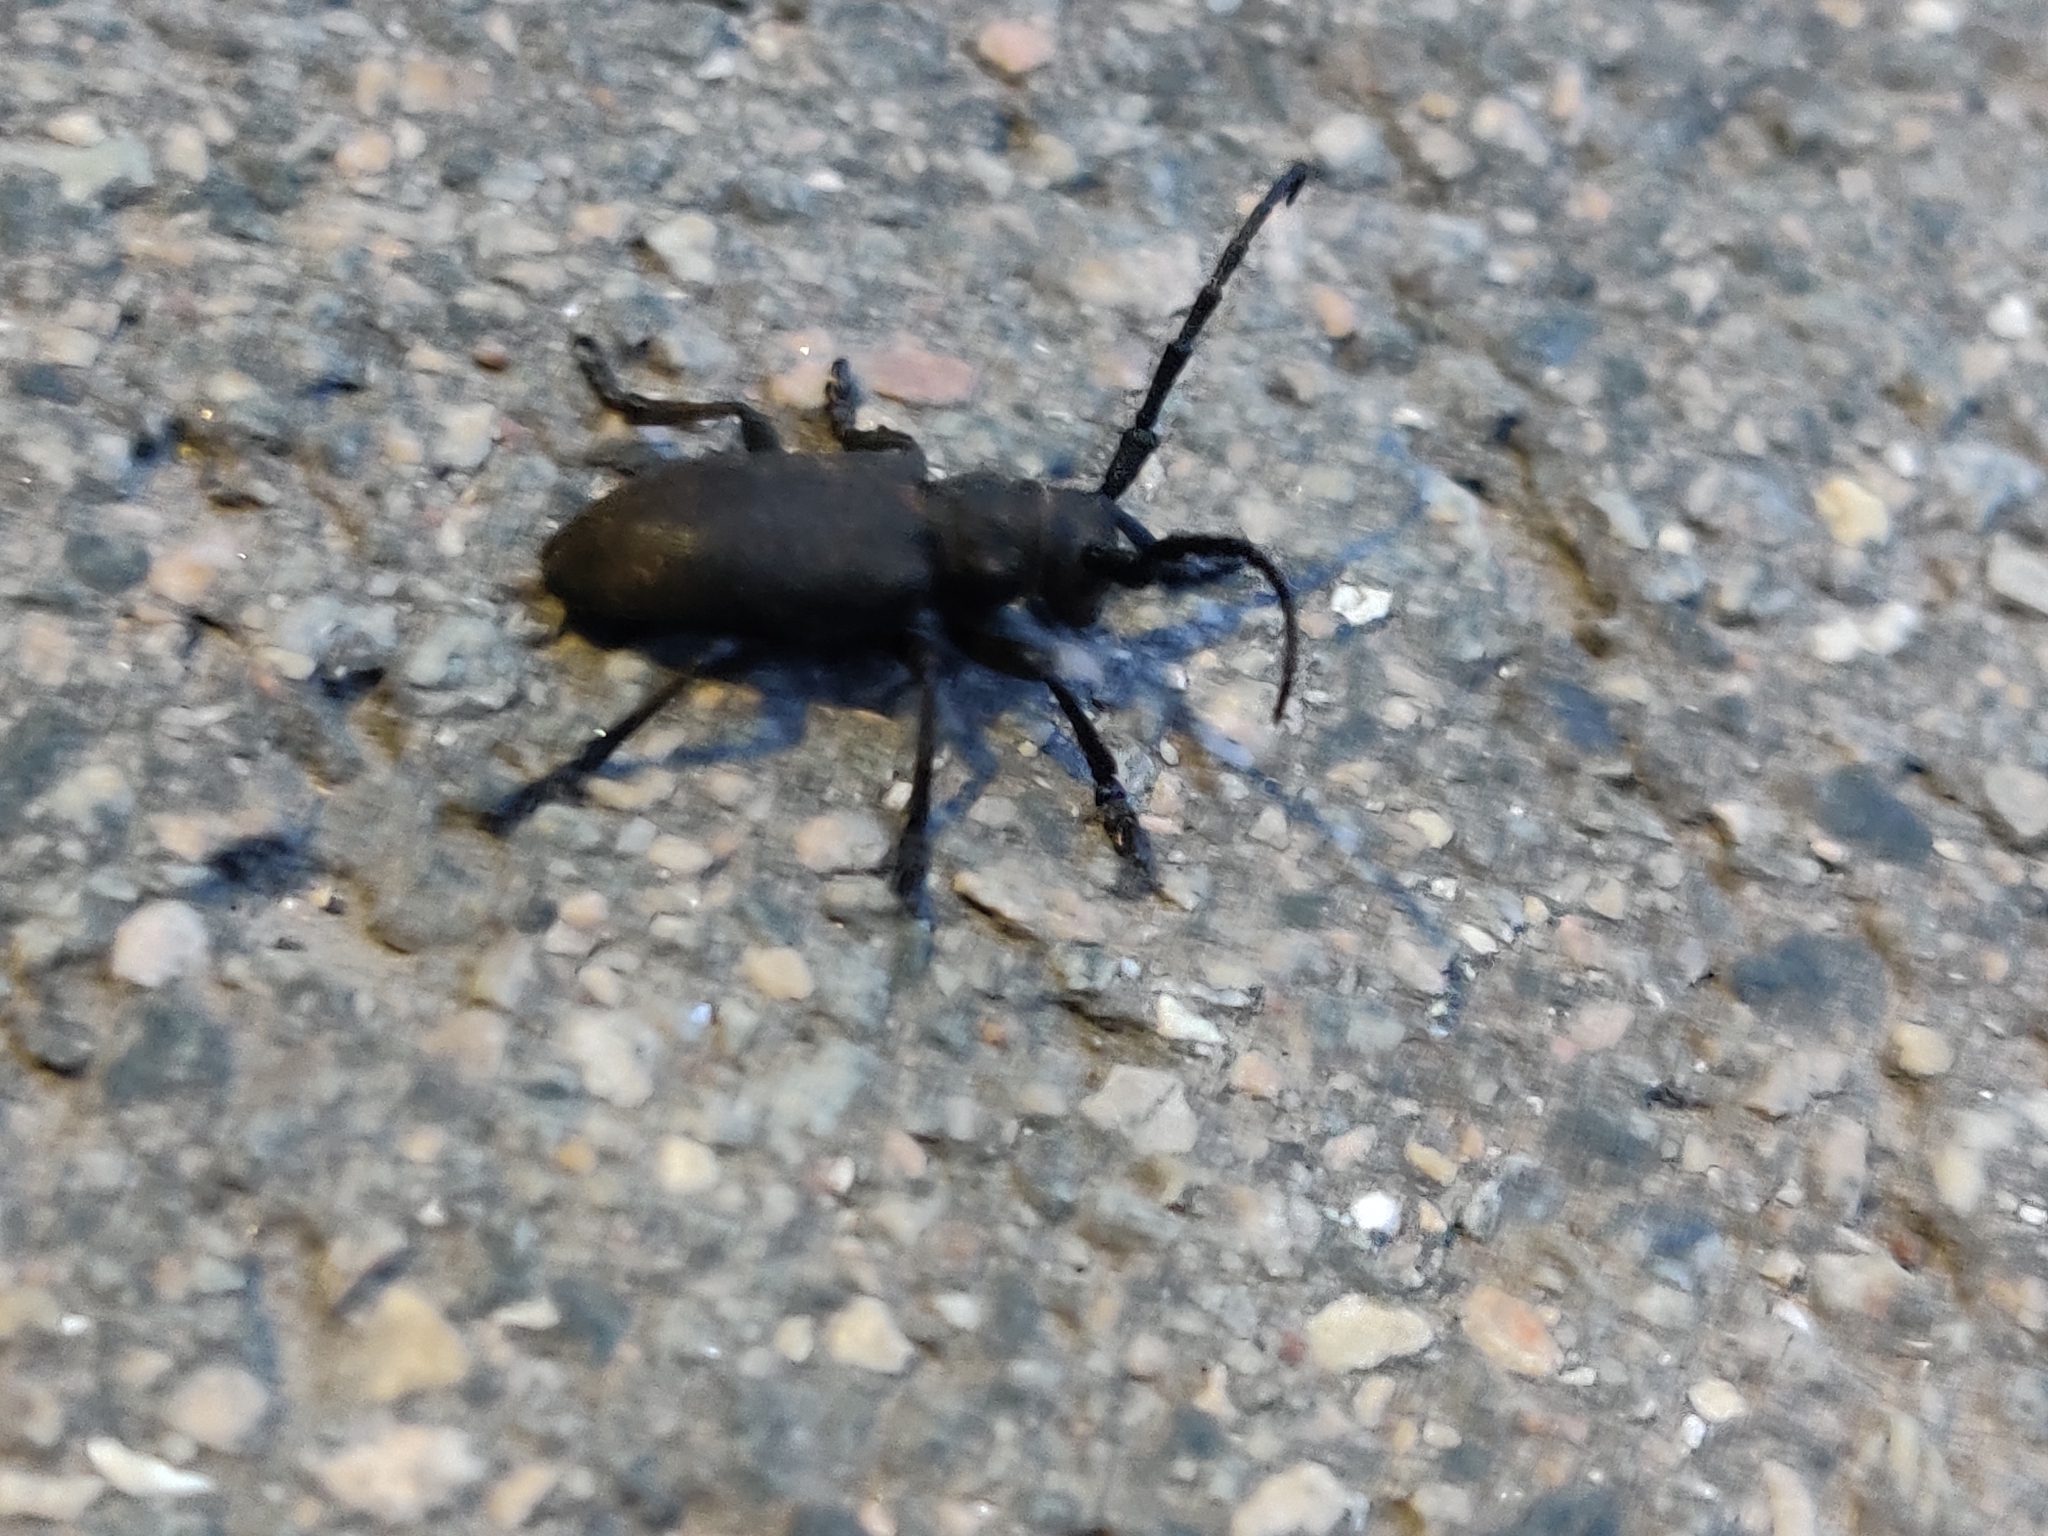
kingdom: Animalia
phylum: Arthropoda
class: Insecta
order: Coleoptera
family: Cerambycidae
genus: Lamia
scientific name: Lamia textor
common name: Weaver beetle
